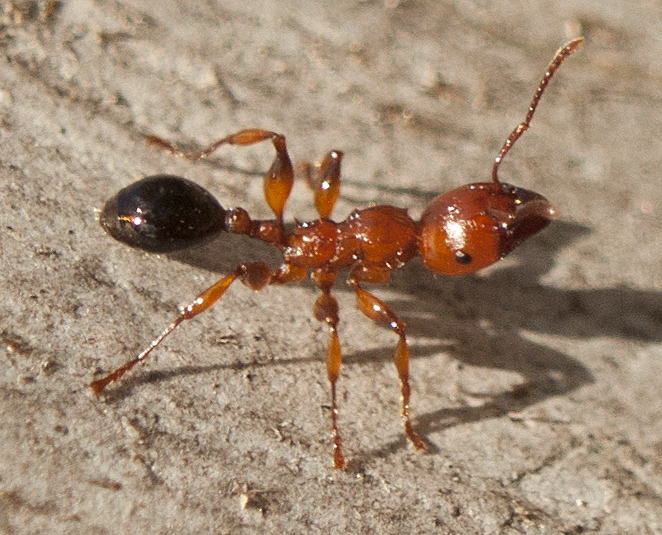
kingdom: Animalia
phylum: Arthropoda
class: Insecta
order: Hymenoptera
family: Formicidae
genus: Podomyrma
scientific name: Podomyrma gratiosa
